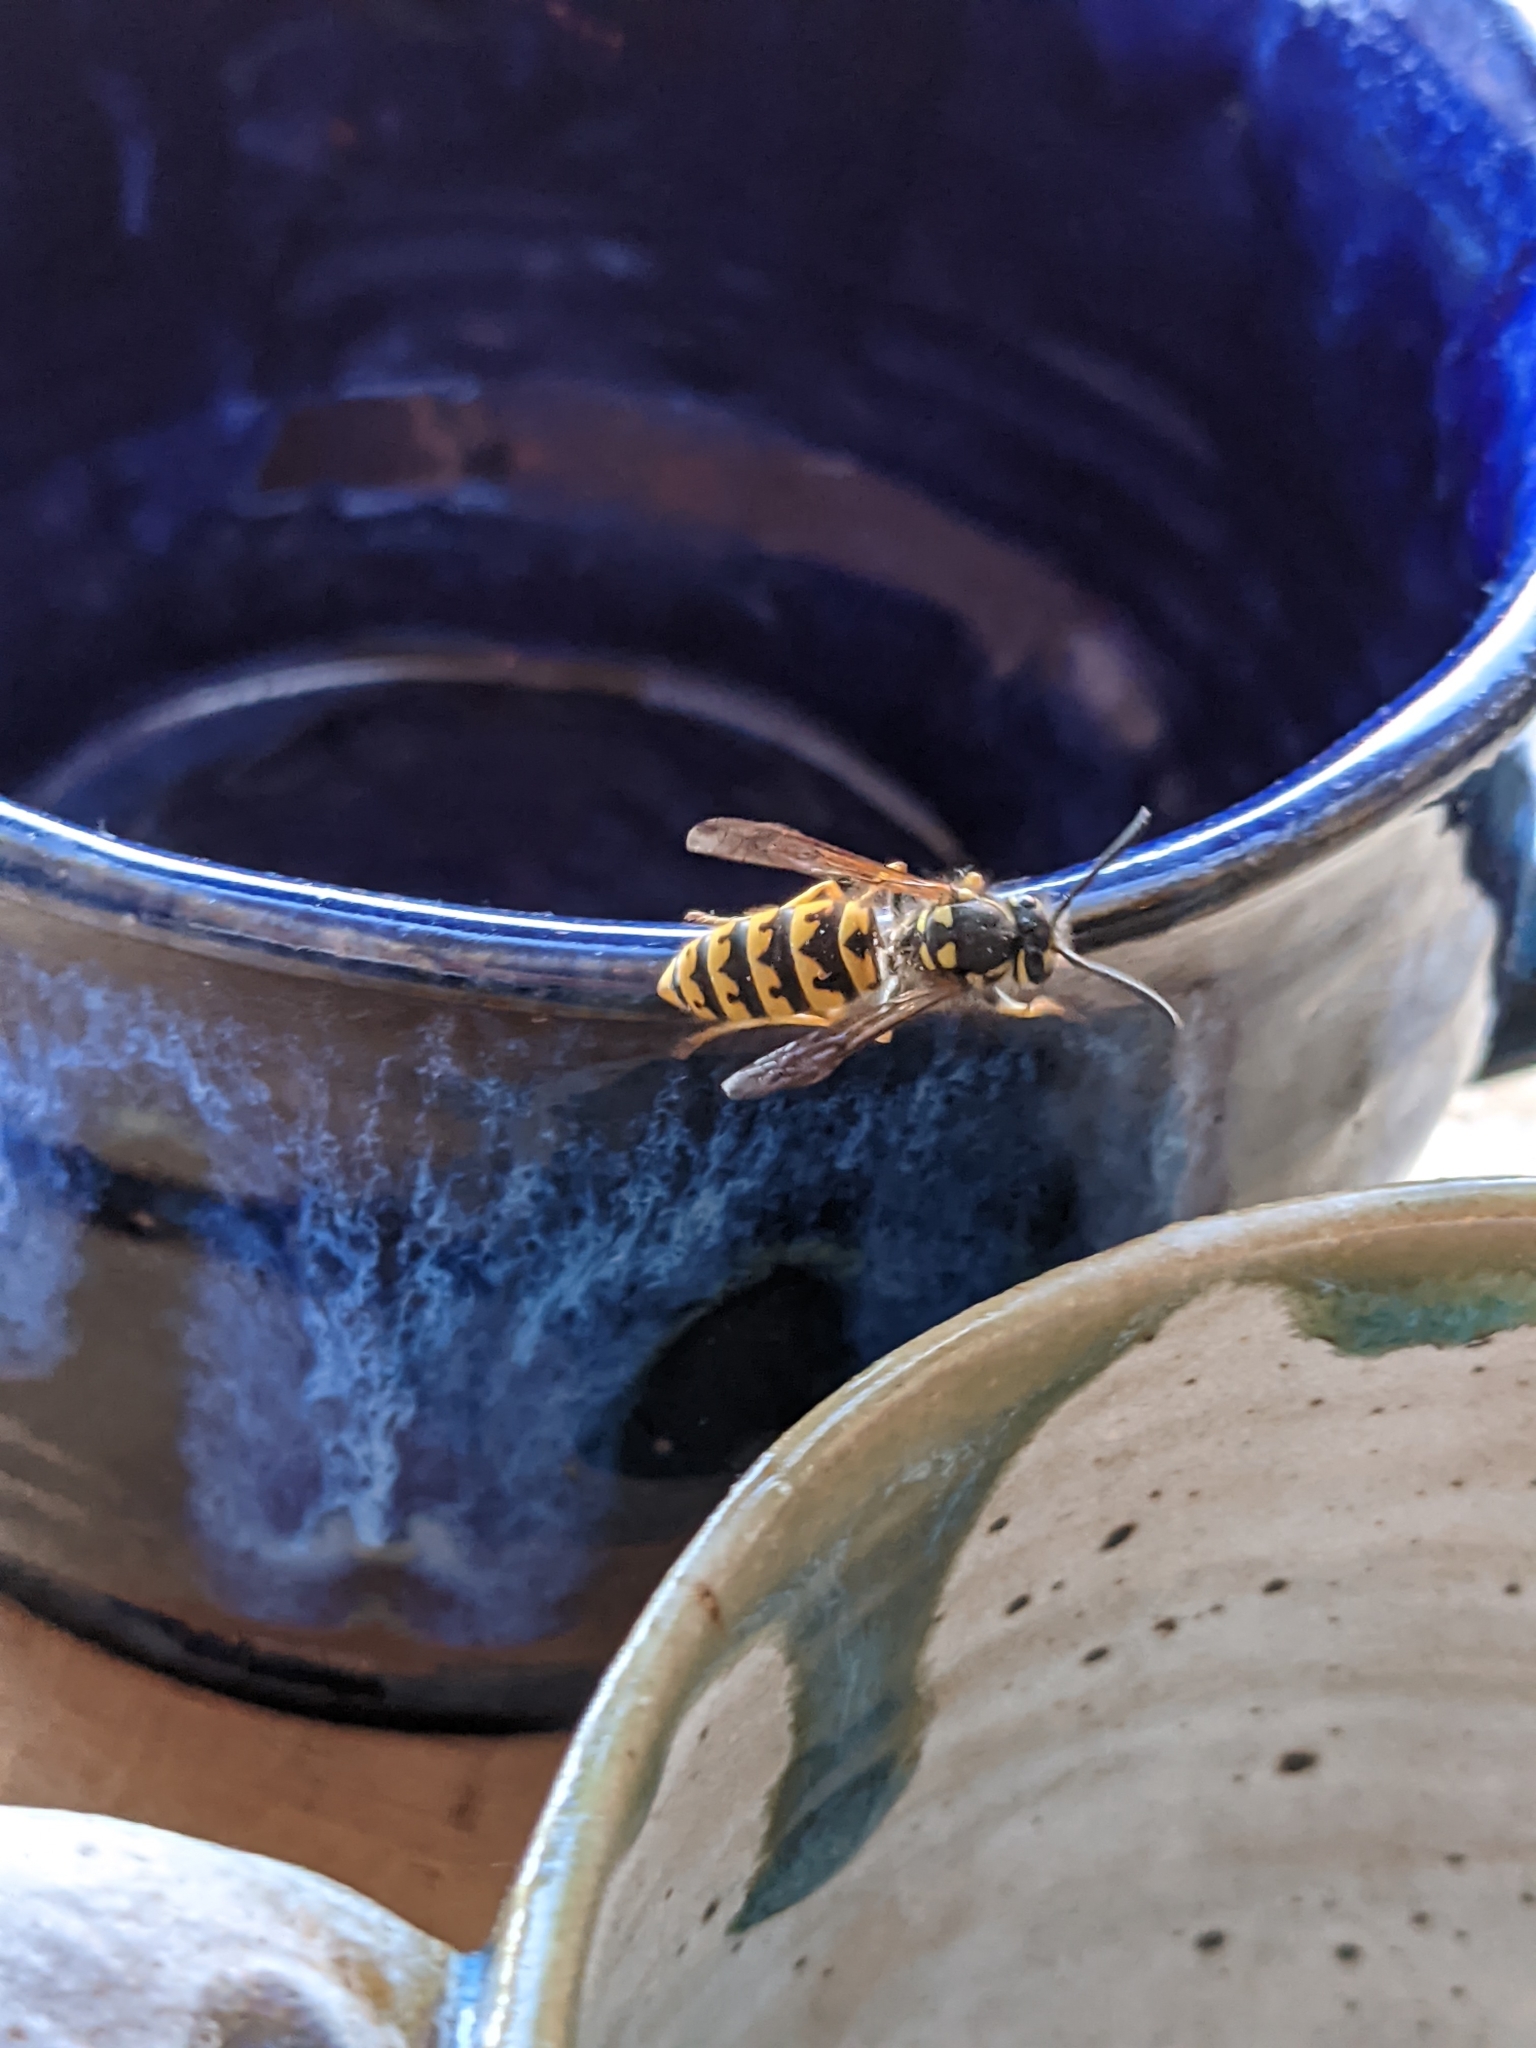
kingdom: Animalia
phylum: Arthropoda
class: Insecta
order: Hymenoptera
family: Vespidae
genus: Vespula
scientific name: Vespula germanica
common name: German wasp
